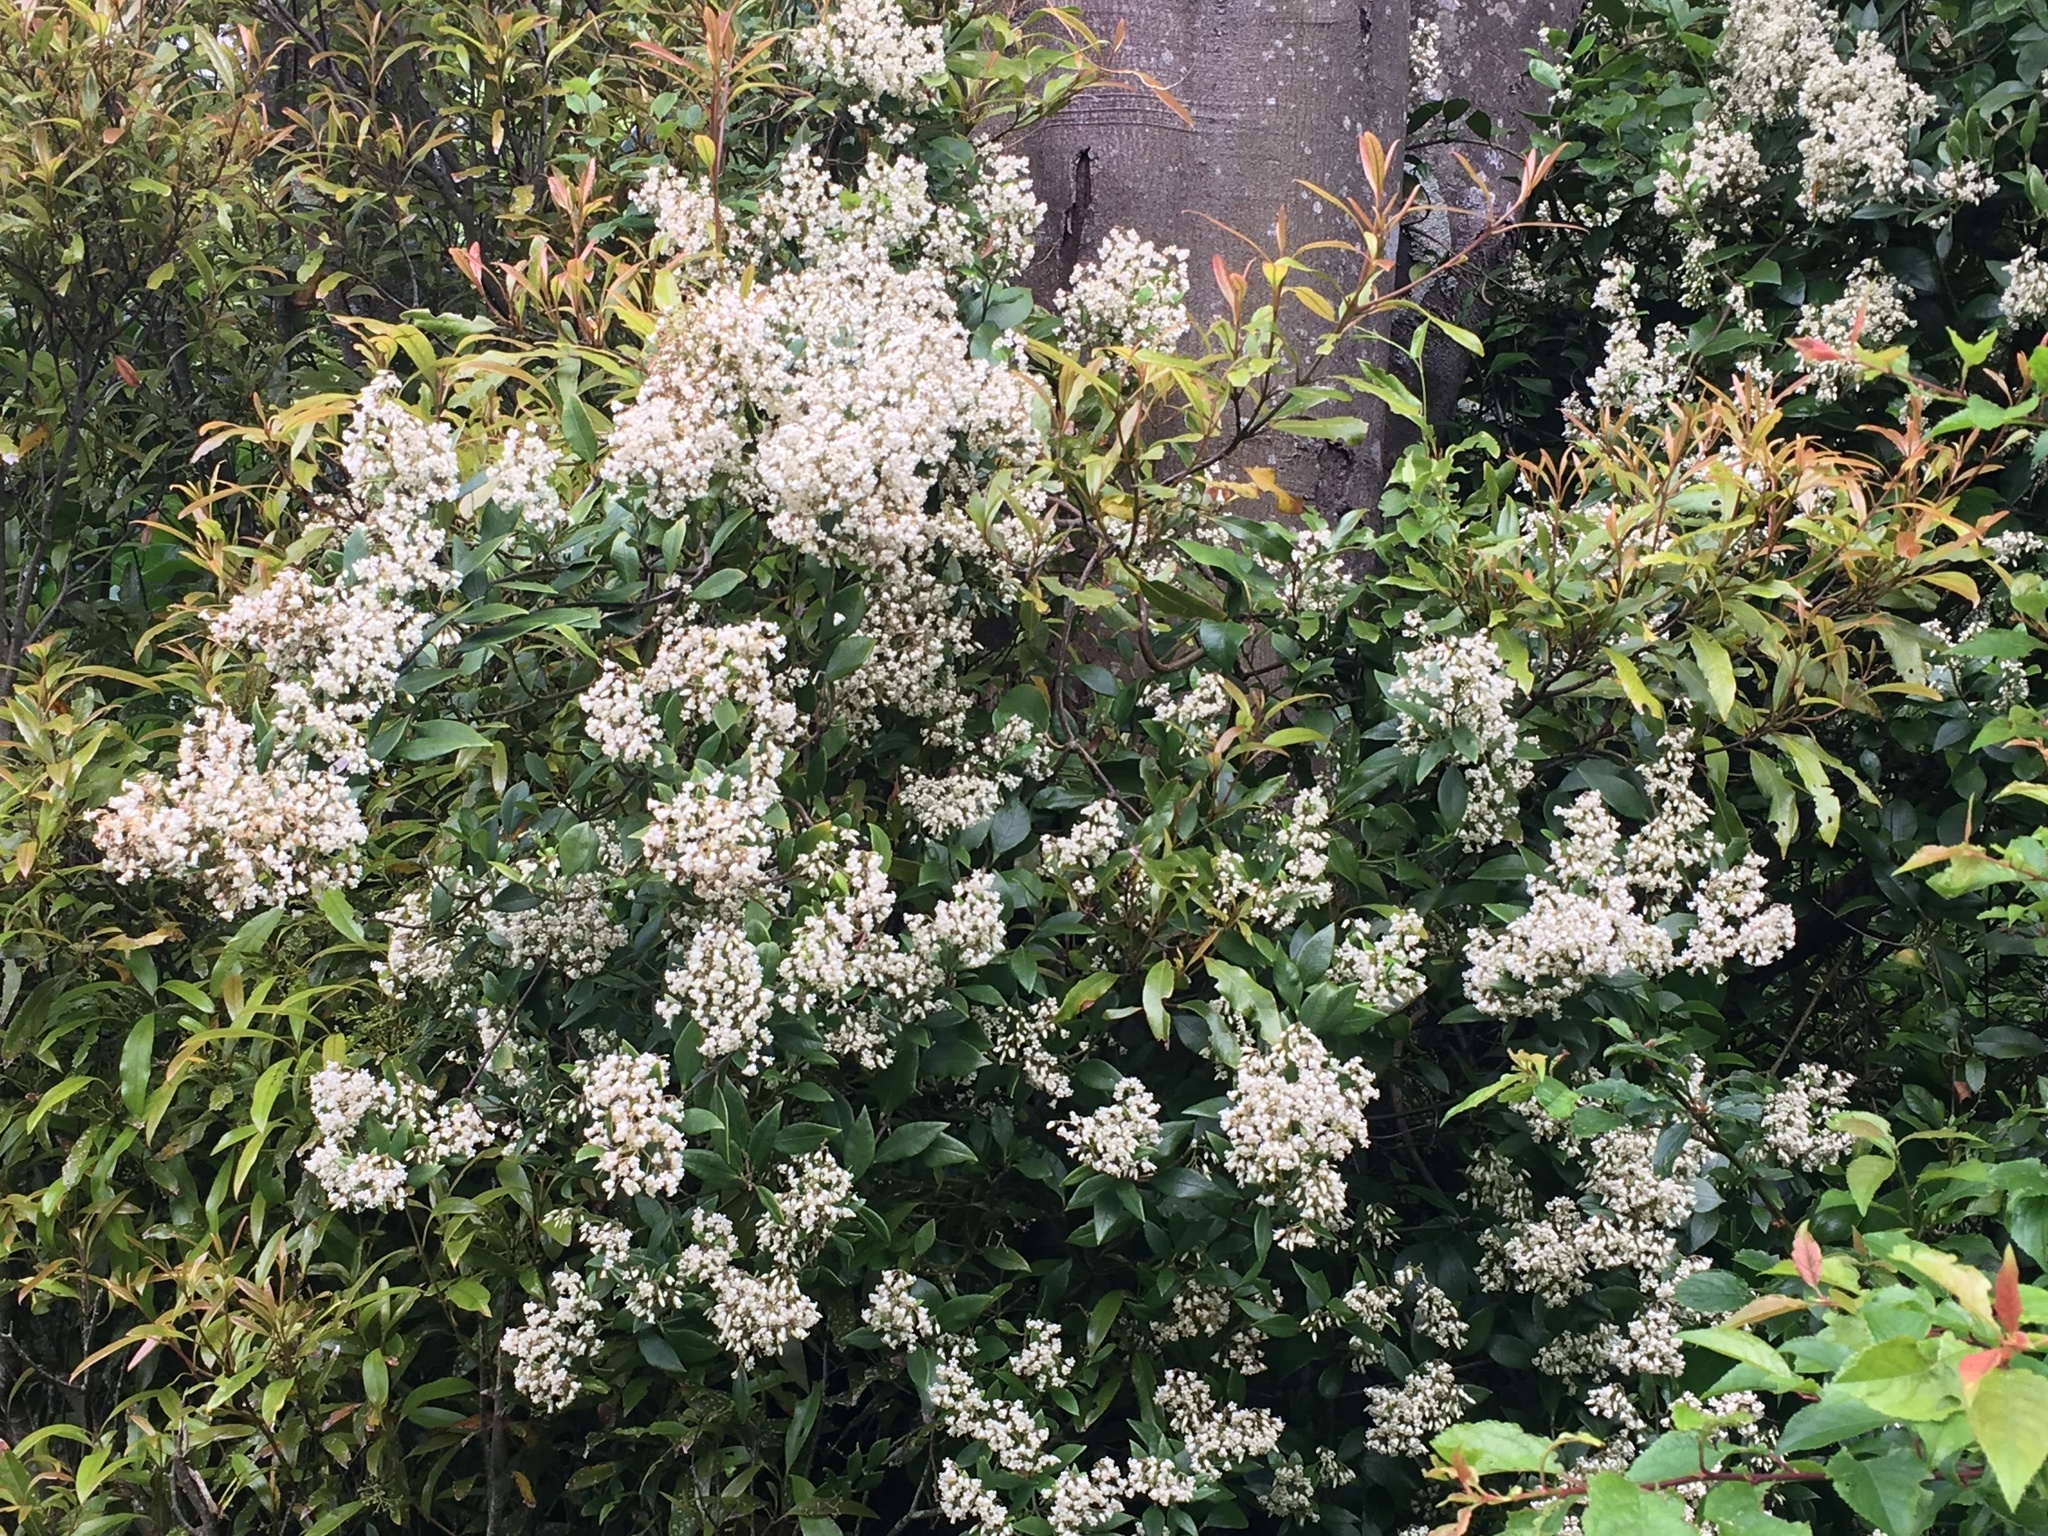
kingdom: Plantae
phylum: Tracheophyta
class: Magnoliopsida
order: Gentianales
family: Apocynaceae
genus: Parsonsia
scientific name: Parsonsia heterophylla
